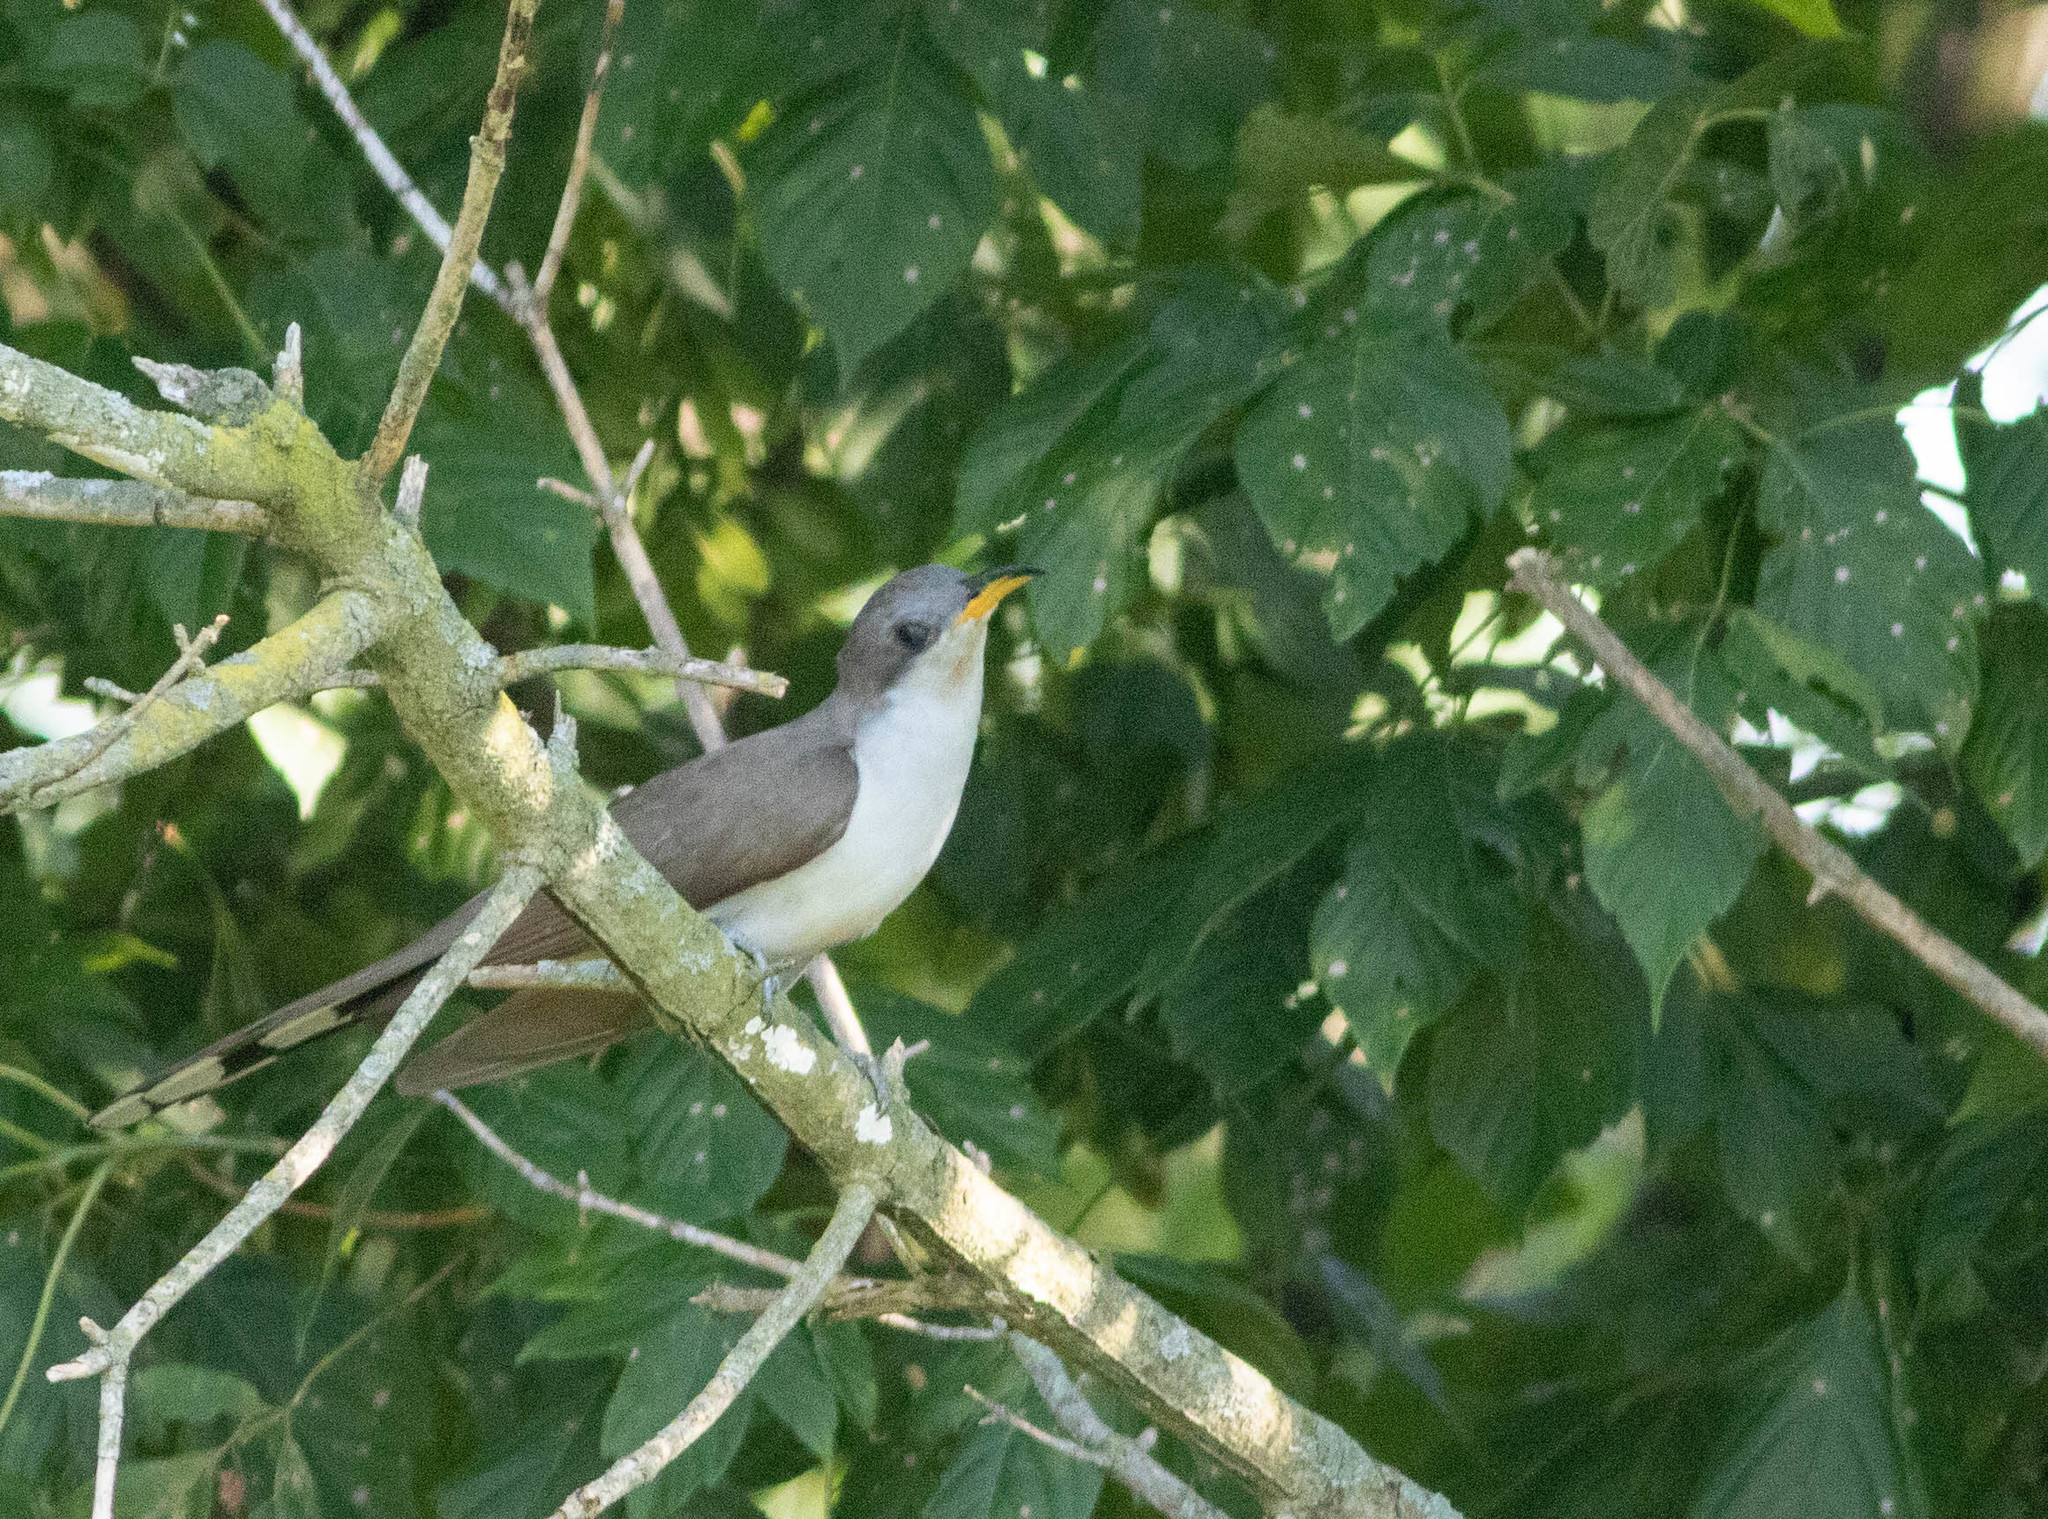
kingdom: Animalia
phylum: Chordata
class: Aves
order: Cuculiformes
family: Cuculidae
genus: Coccyzus
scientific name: Coccyzus americanus
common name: Yellow-billed cuckoo
